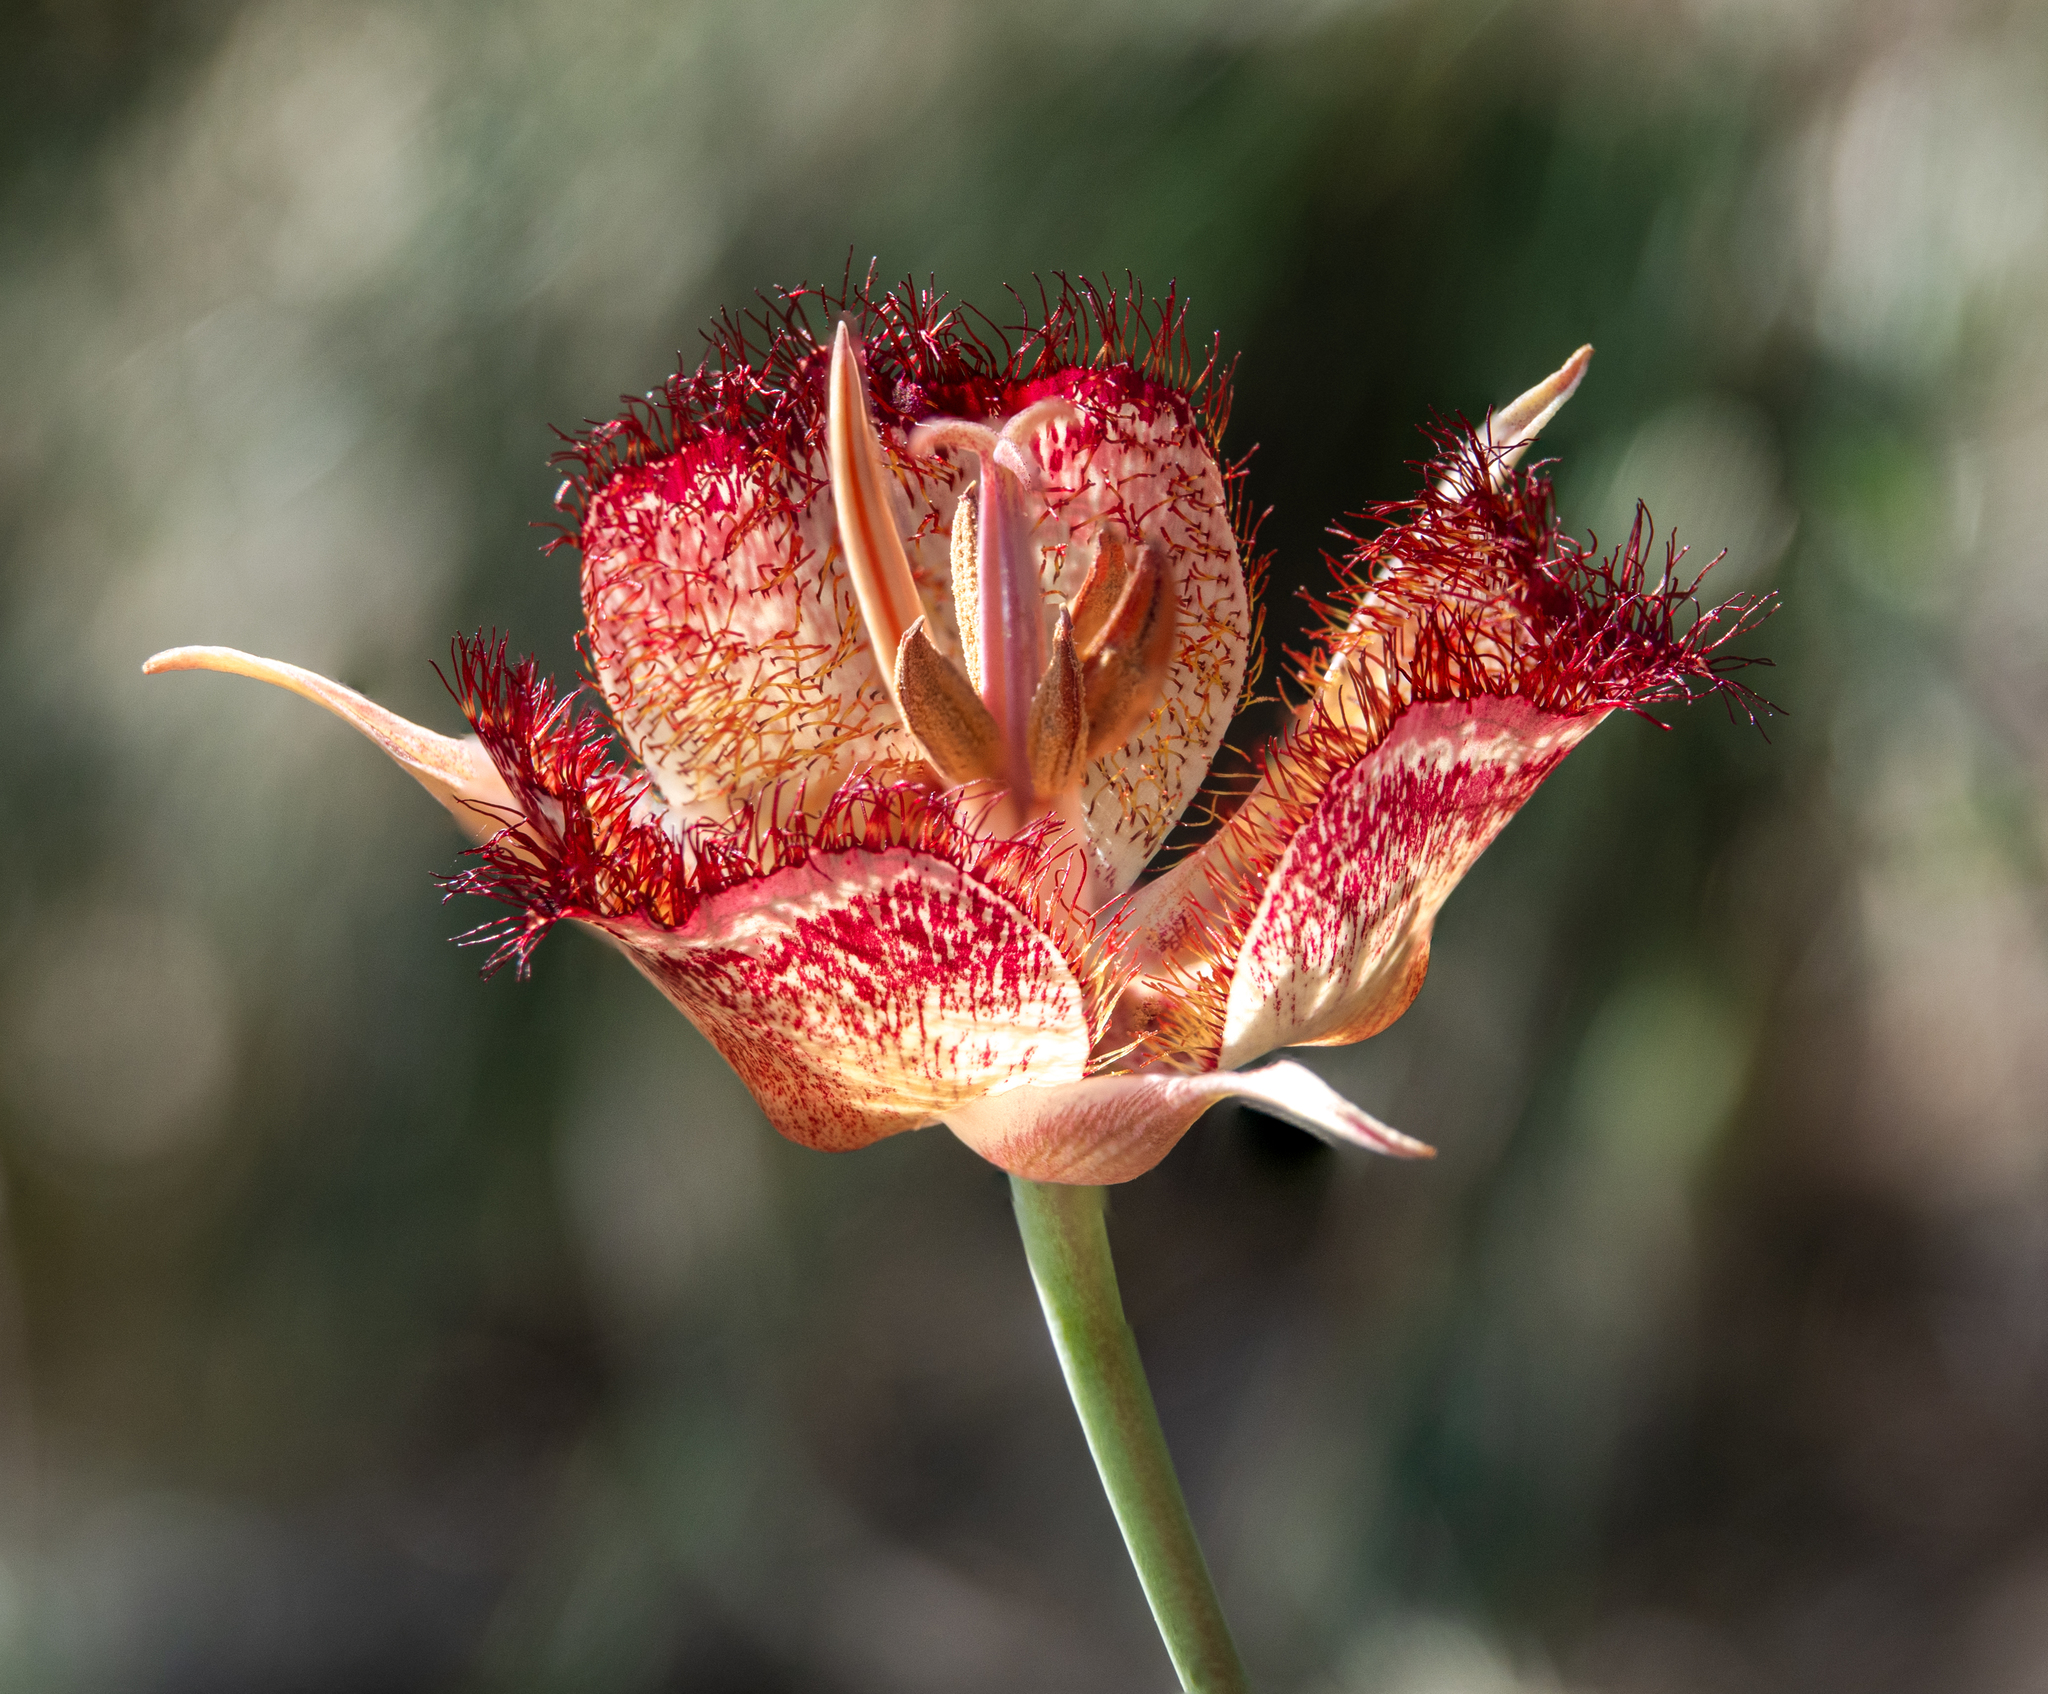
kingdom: Plantae
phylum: Tracheophyta
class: Liliopsida
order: Liliales
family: Liliaceae
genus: Calochortus
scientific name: Calochortus fimbriatus
